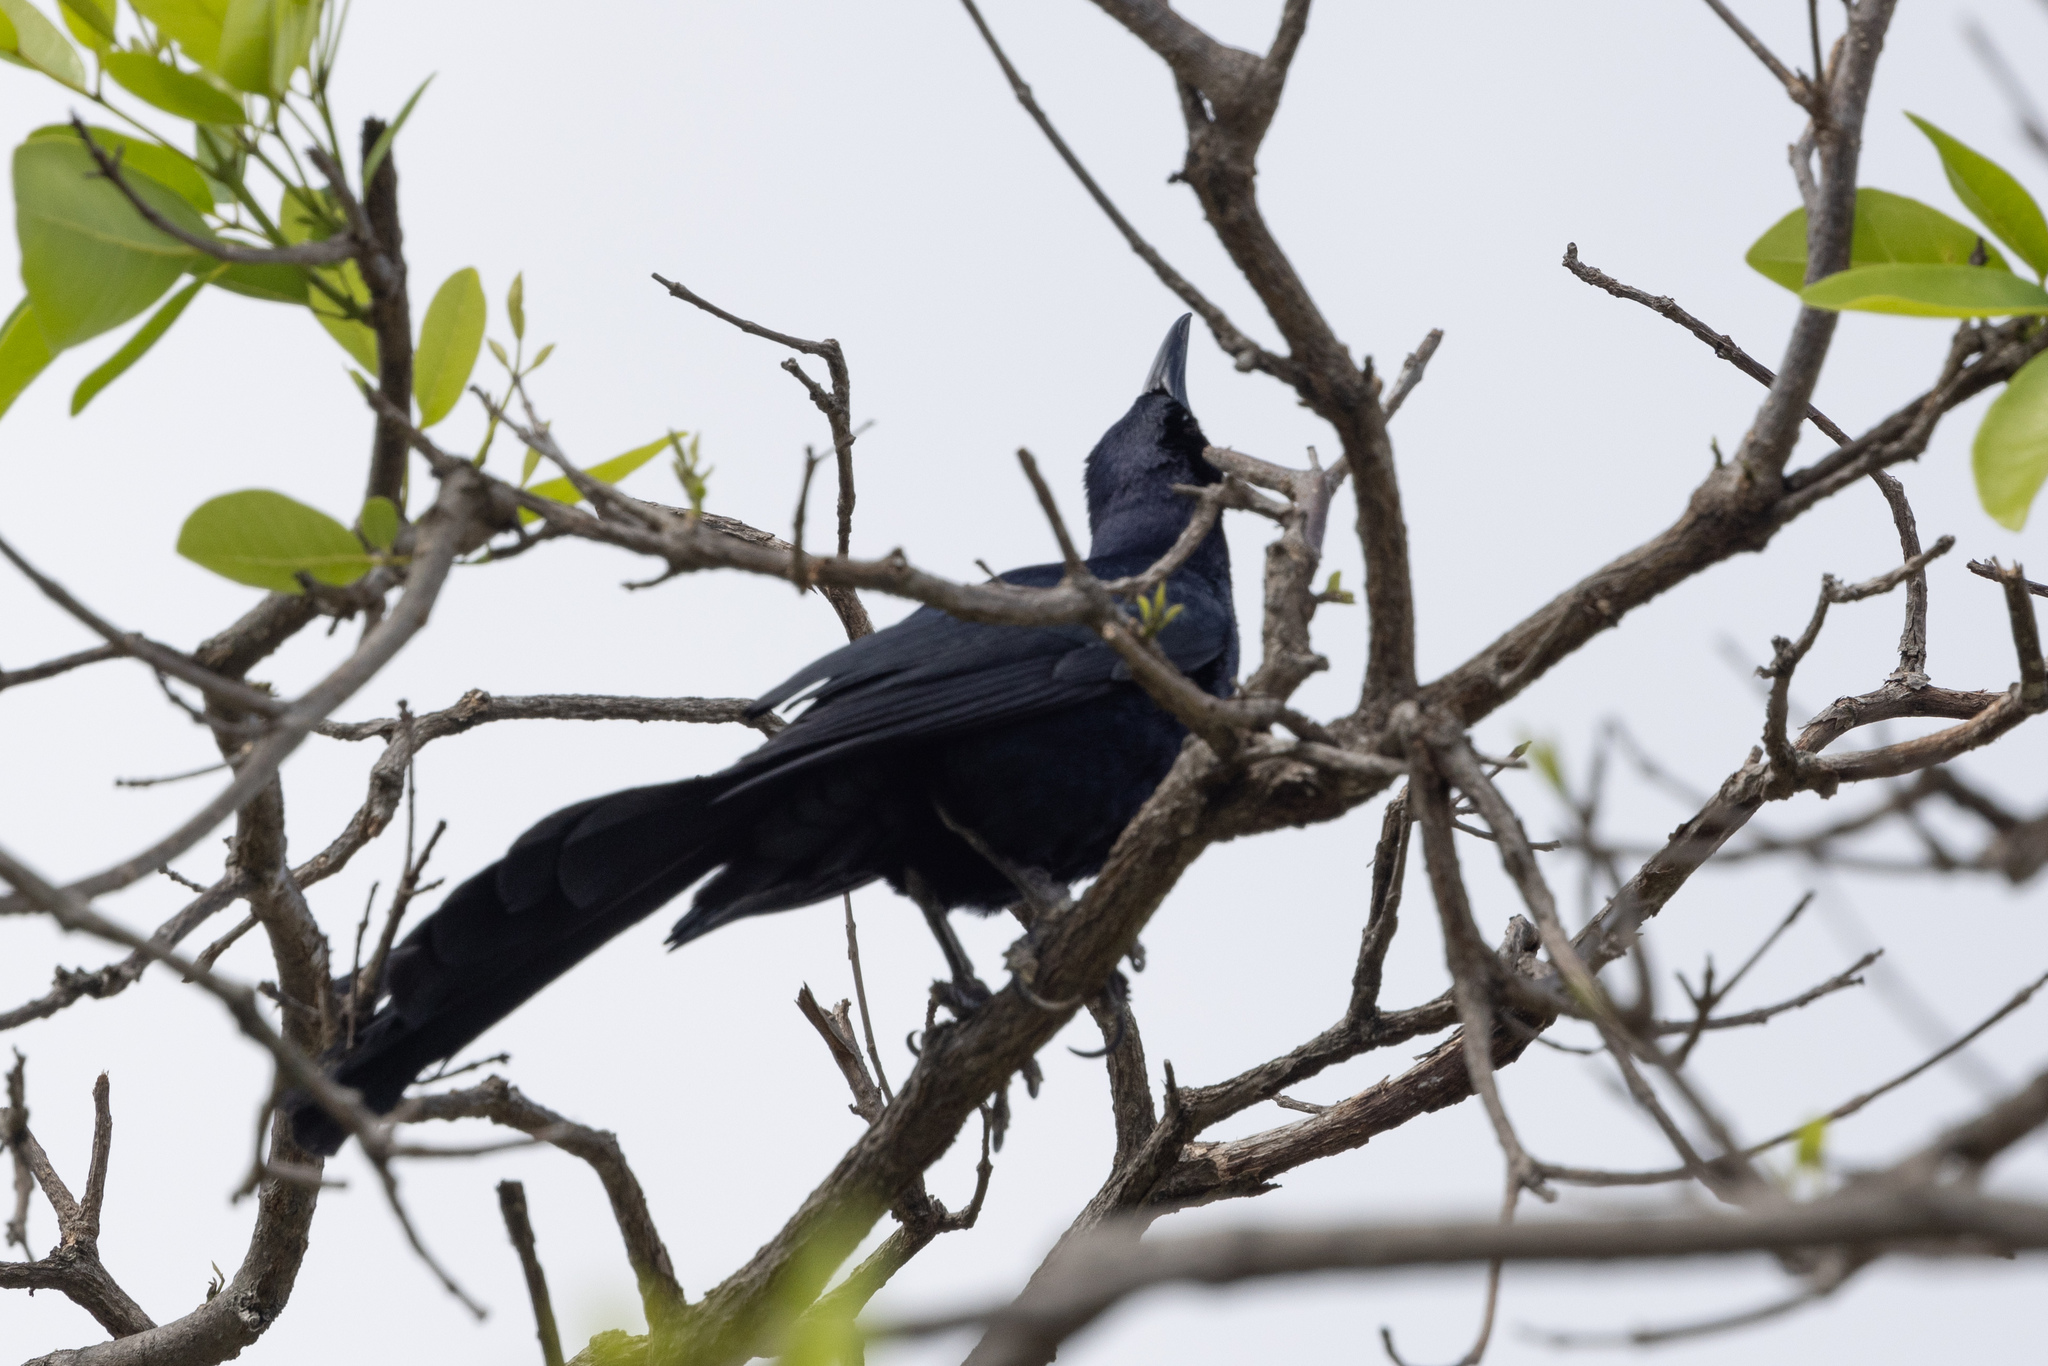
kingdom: Animalia
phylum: Chordata
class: Aves
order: Passeriformes
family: Icteridae
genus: Quiscalus
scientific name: Quiscalus mexicanus
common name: Great-tailed grackle
